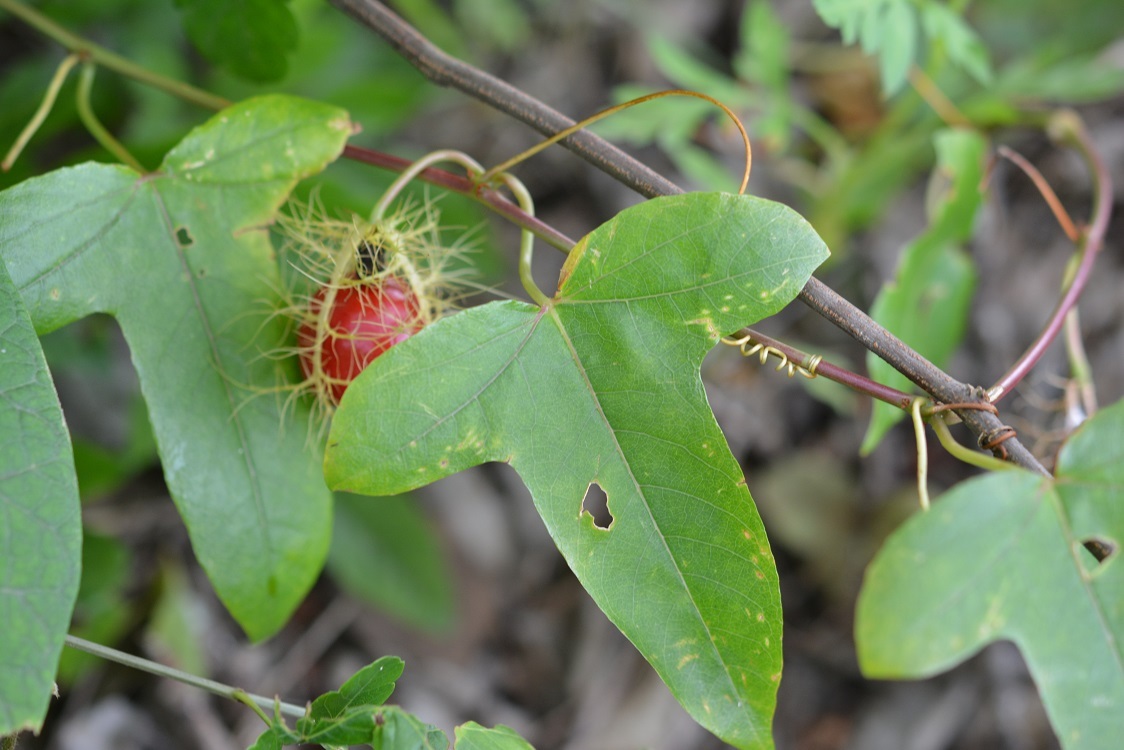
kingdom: Plantae
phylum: Tracheophyta
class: Magnoliopsida
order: Malpighiales
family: Passifloraceae
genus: Passiflora
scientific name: Passiflora ciliata
